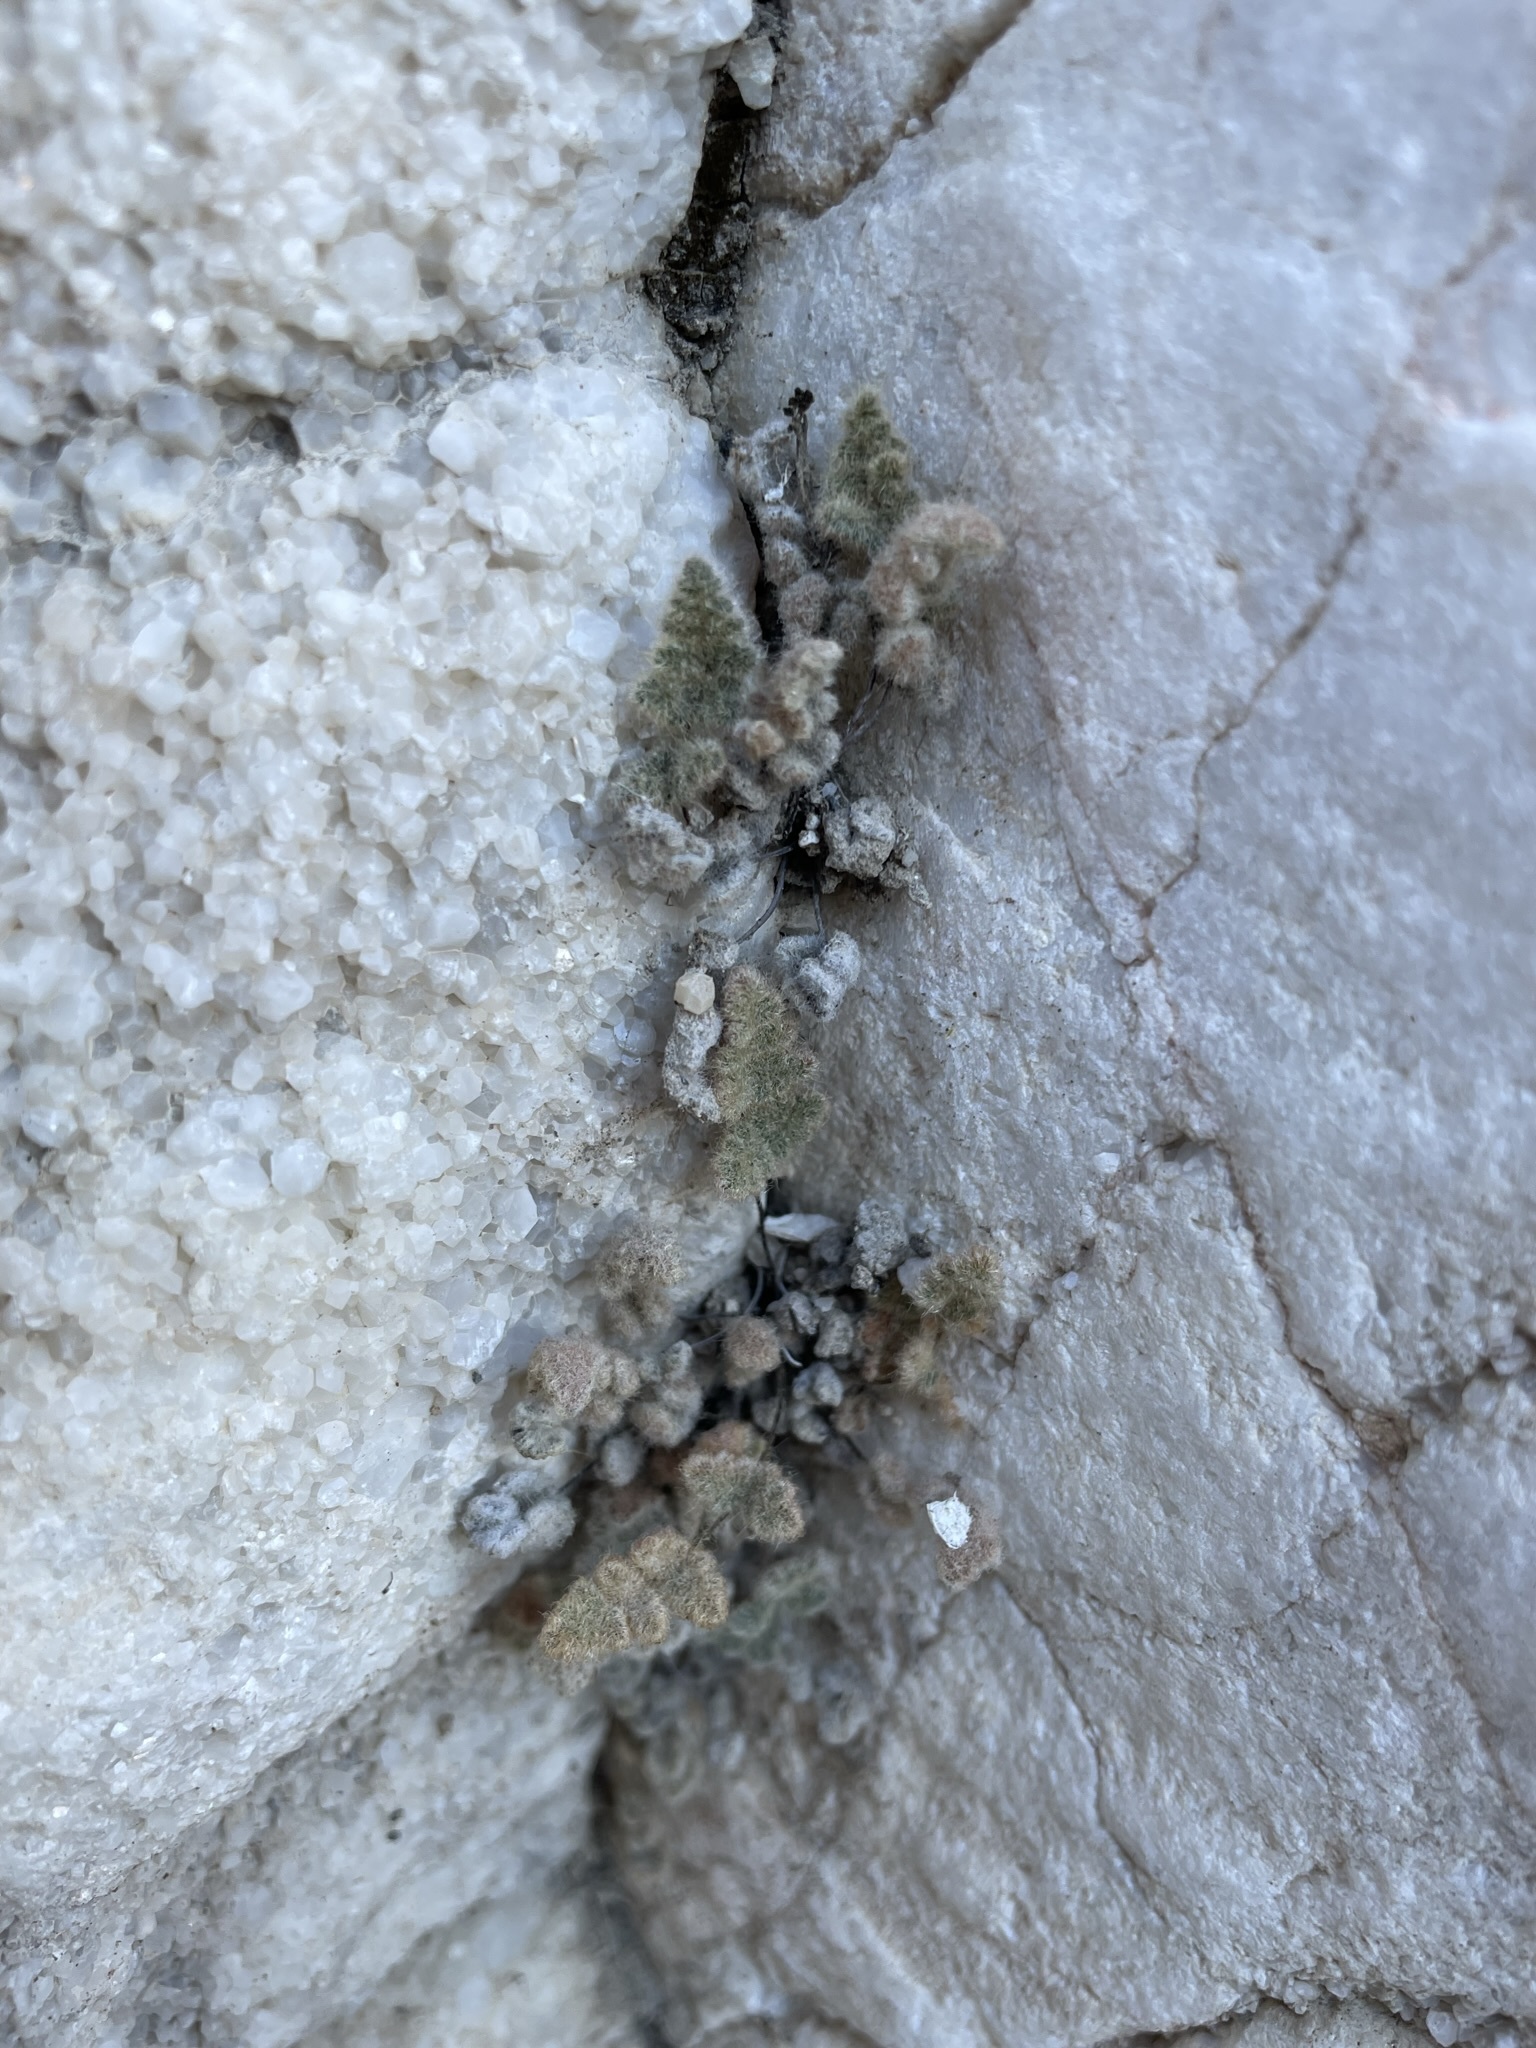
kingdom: Plantae
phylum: Tracheophyta
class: Polypodiopsida
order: Polypodiales
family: Pteridaceae
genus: Myriopteris
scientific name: Myriopteris parryi
